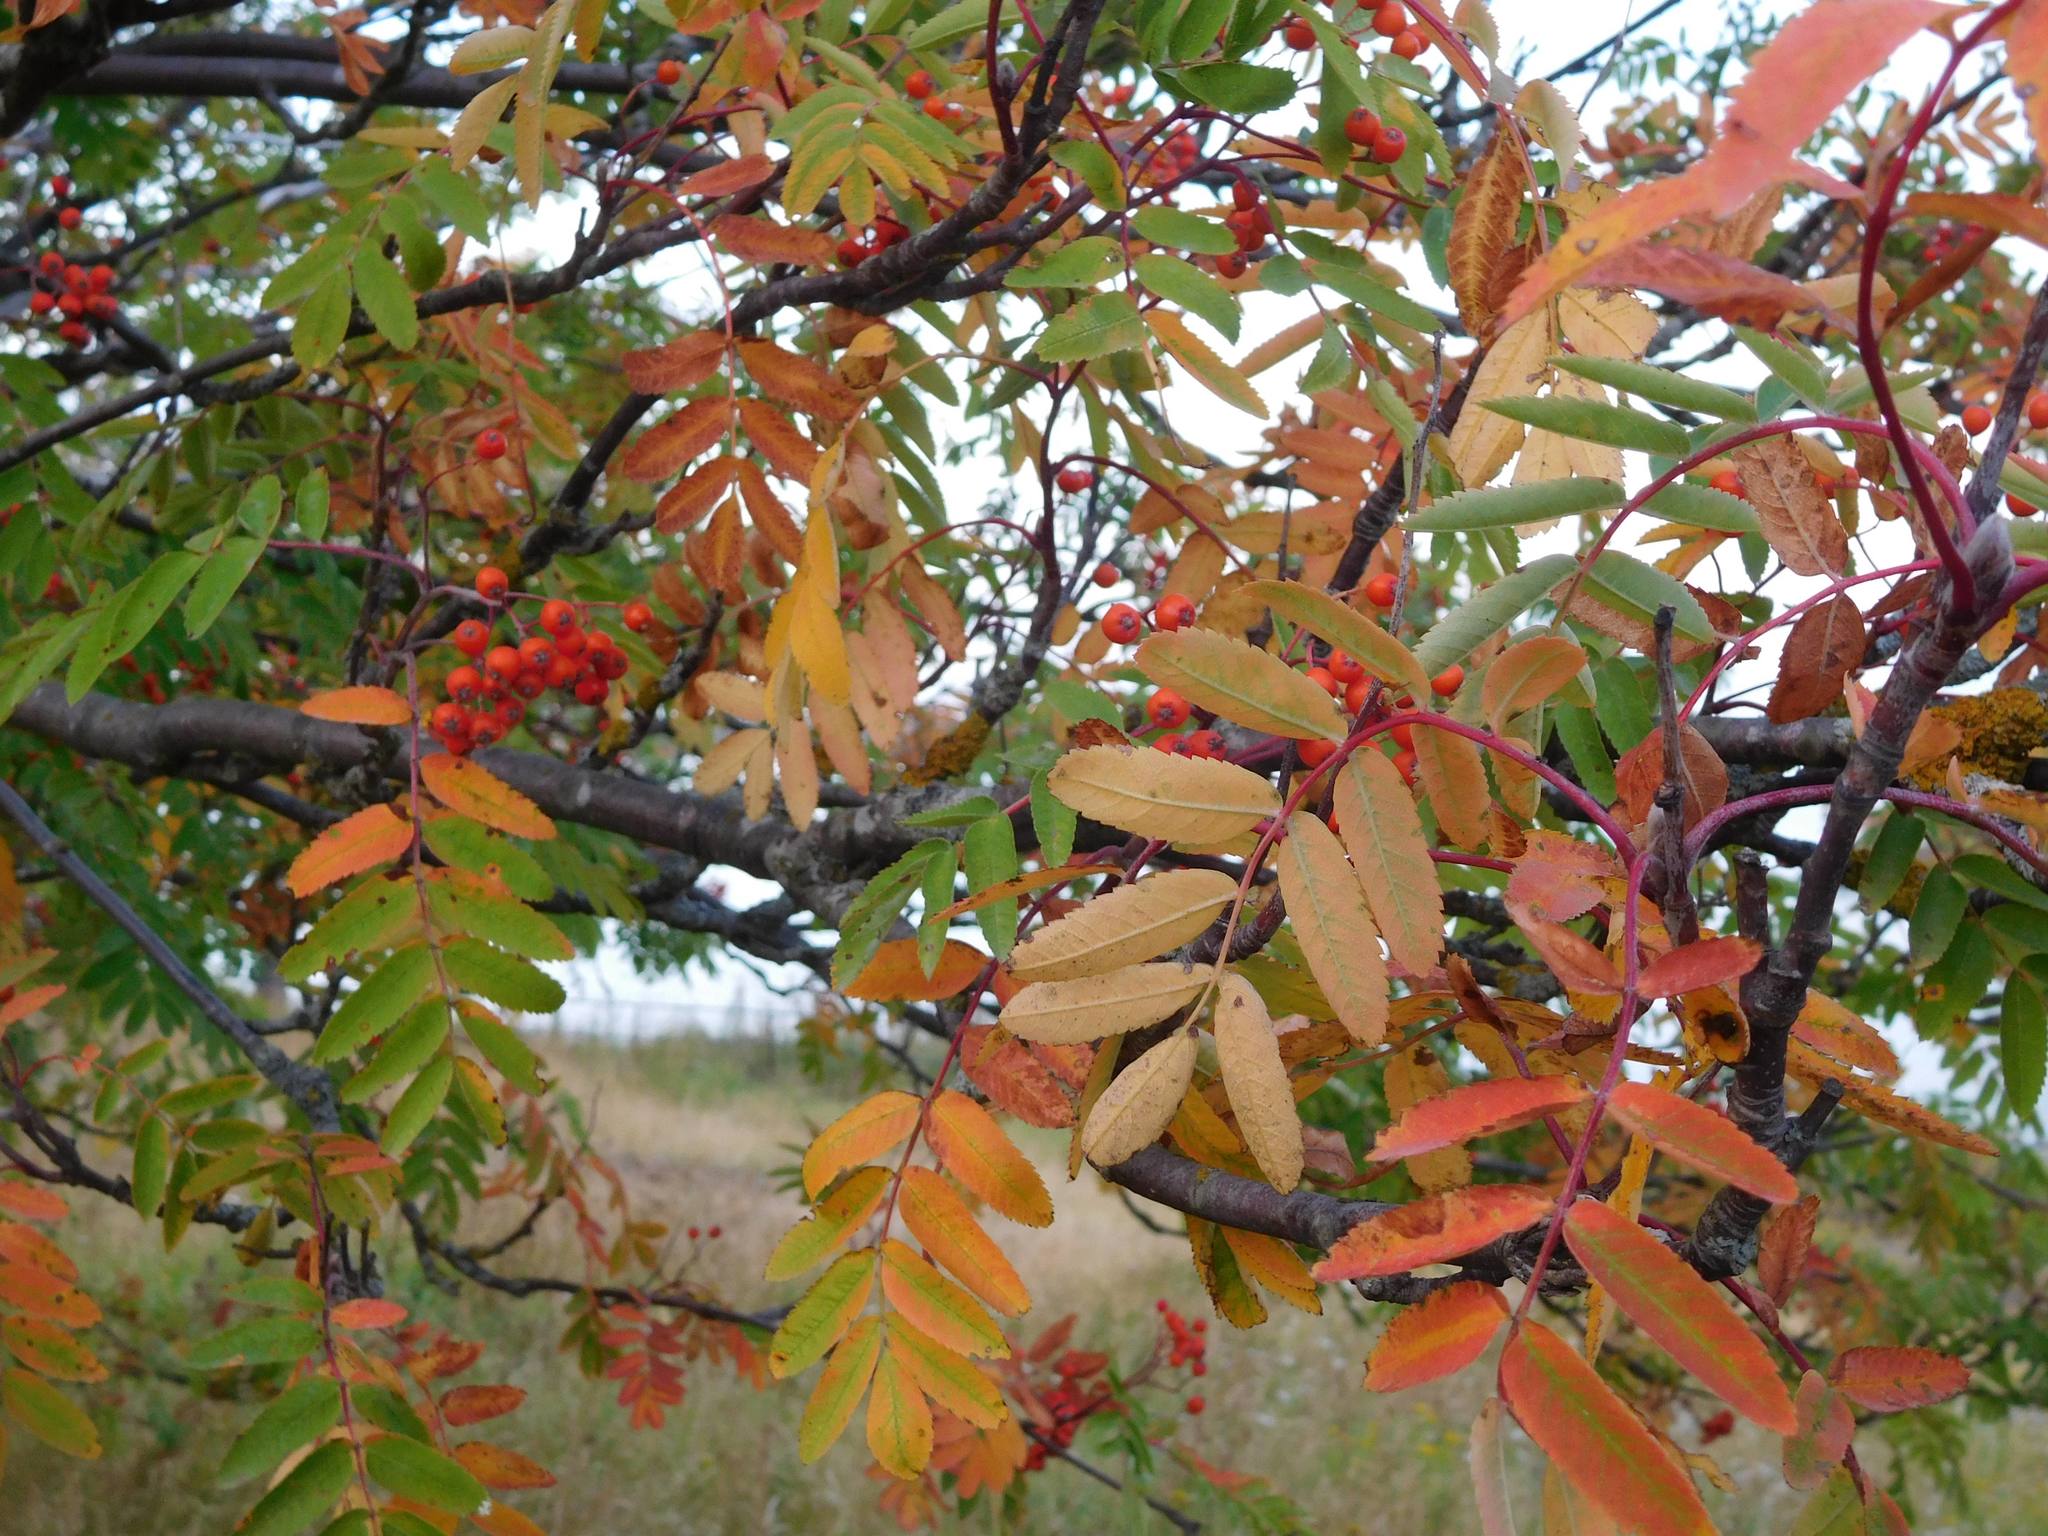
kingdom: Plantae
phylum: Tracheophyta
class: Magnoliopsida
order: Rosales
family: Rosaceae
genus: Sorbus
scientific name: Sorbus aucuparia
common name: Rowan
